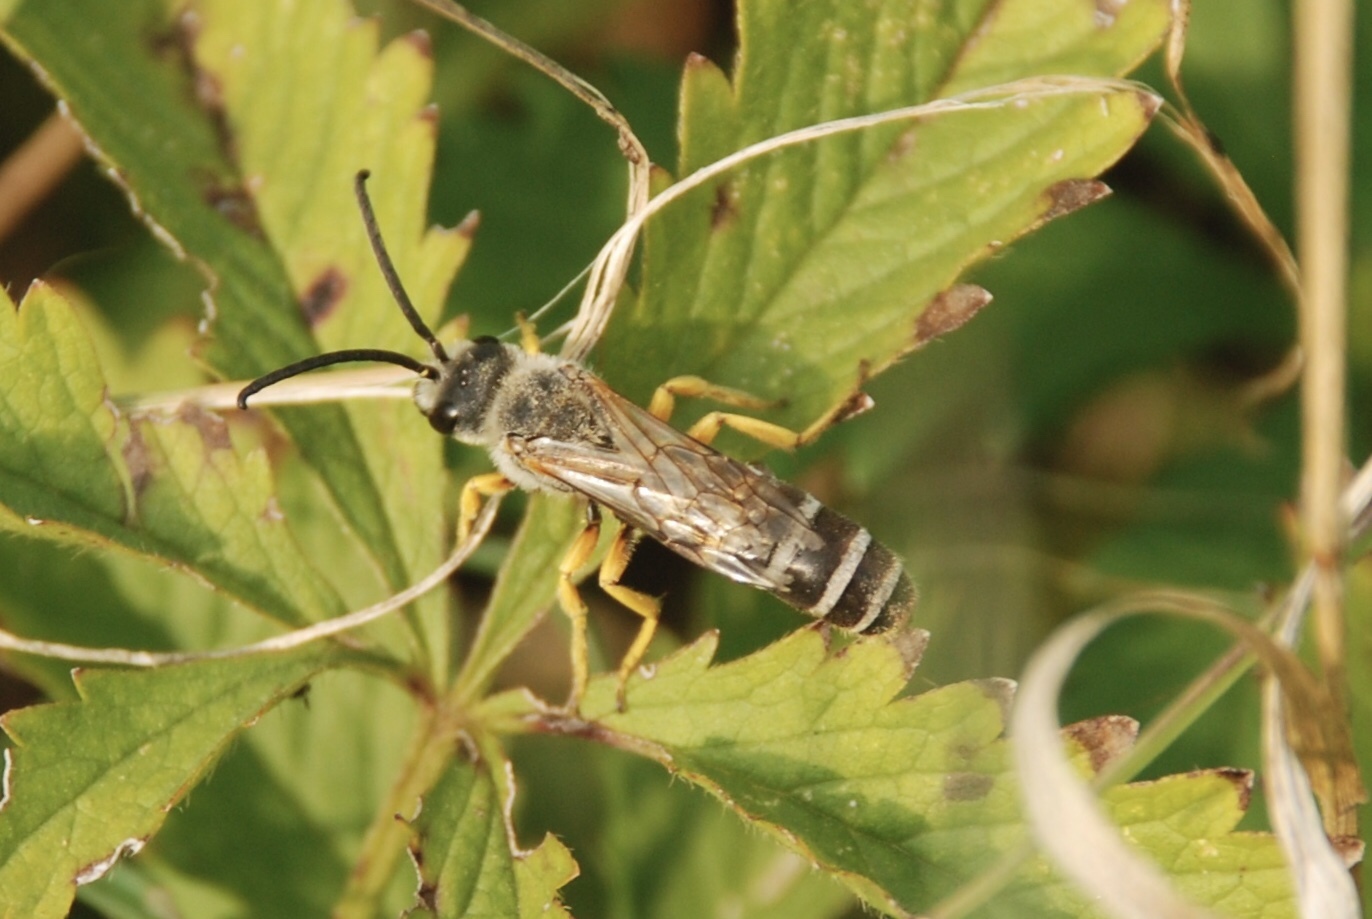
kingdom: Animalia
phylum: Arthropoda
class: Insecta
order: Hymenoptera
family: Halictidae
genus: Halictus
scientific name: Halictus scabiosae
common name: Great banded furrow bee
